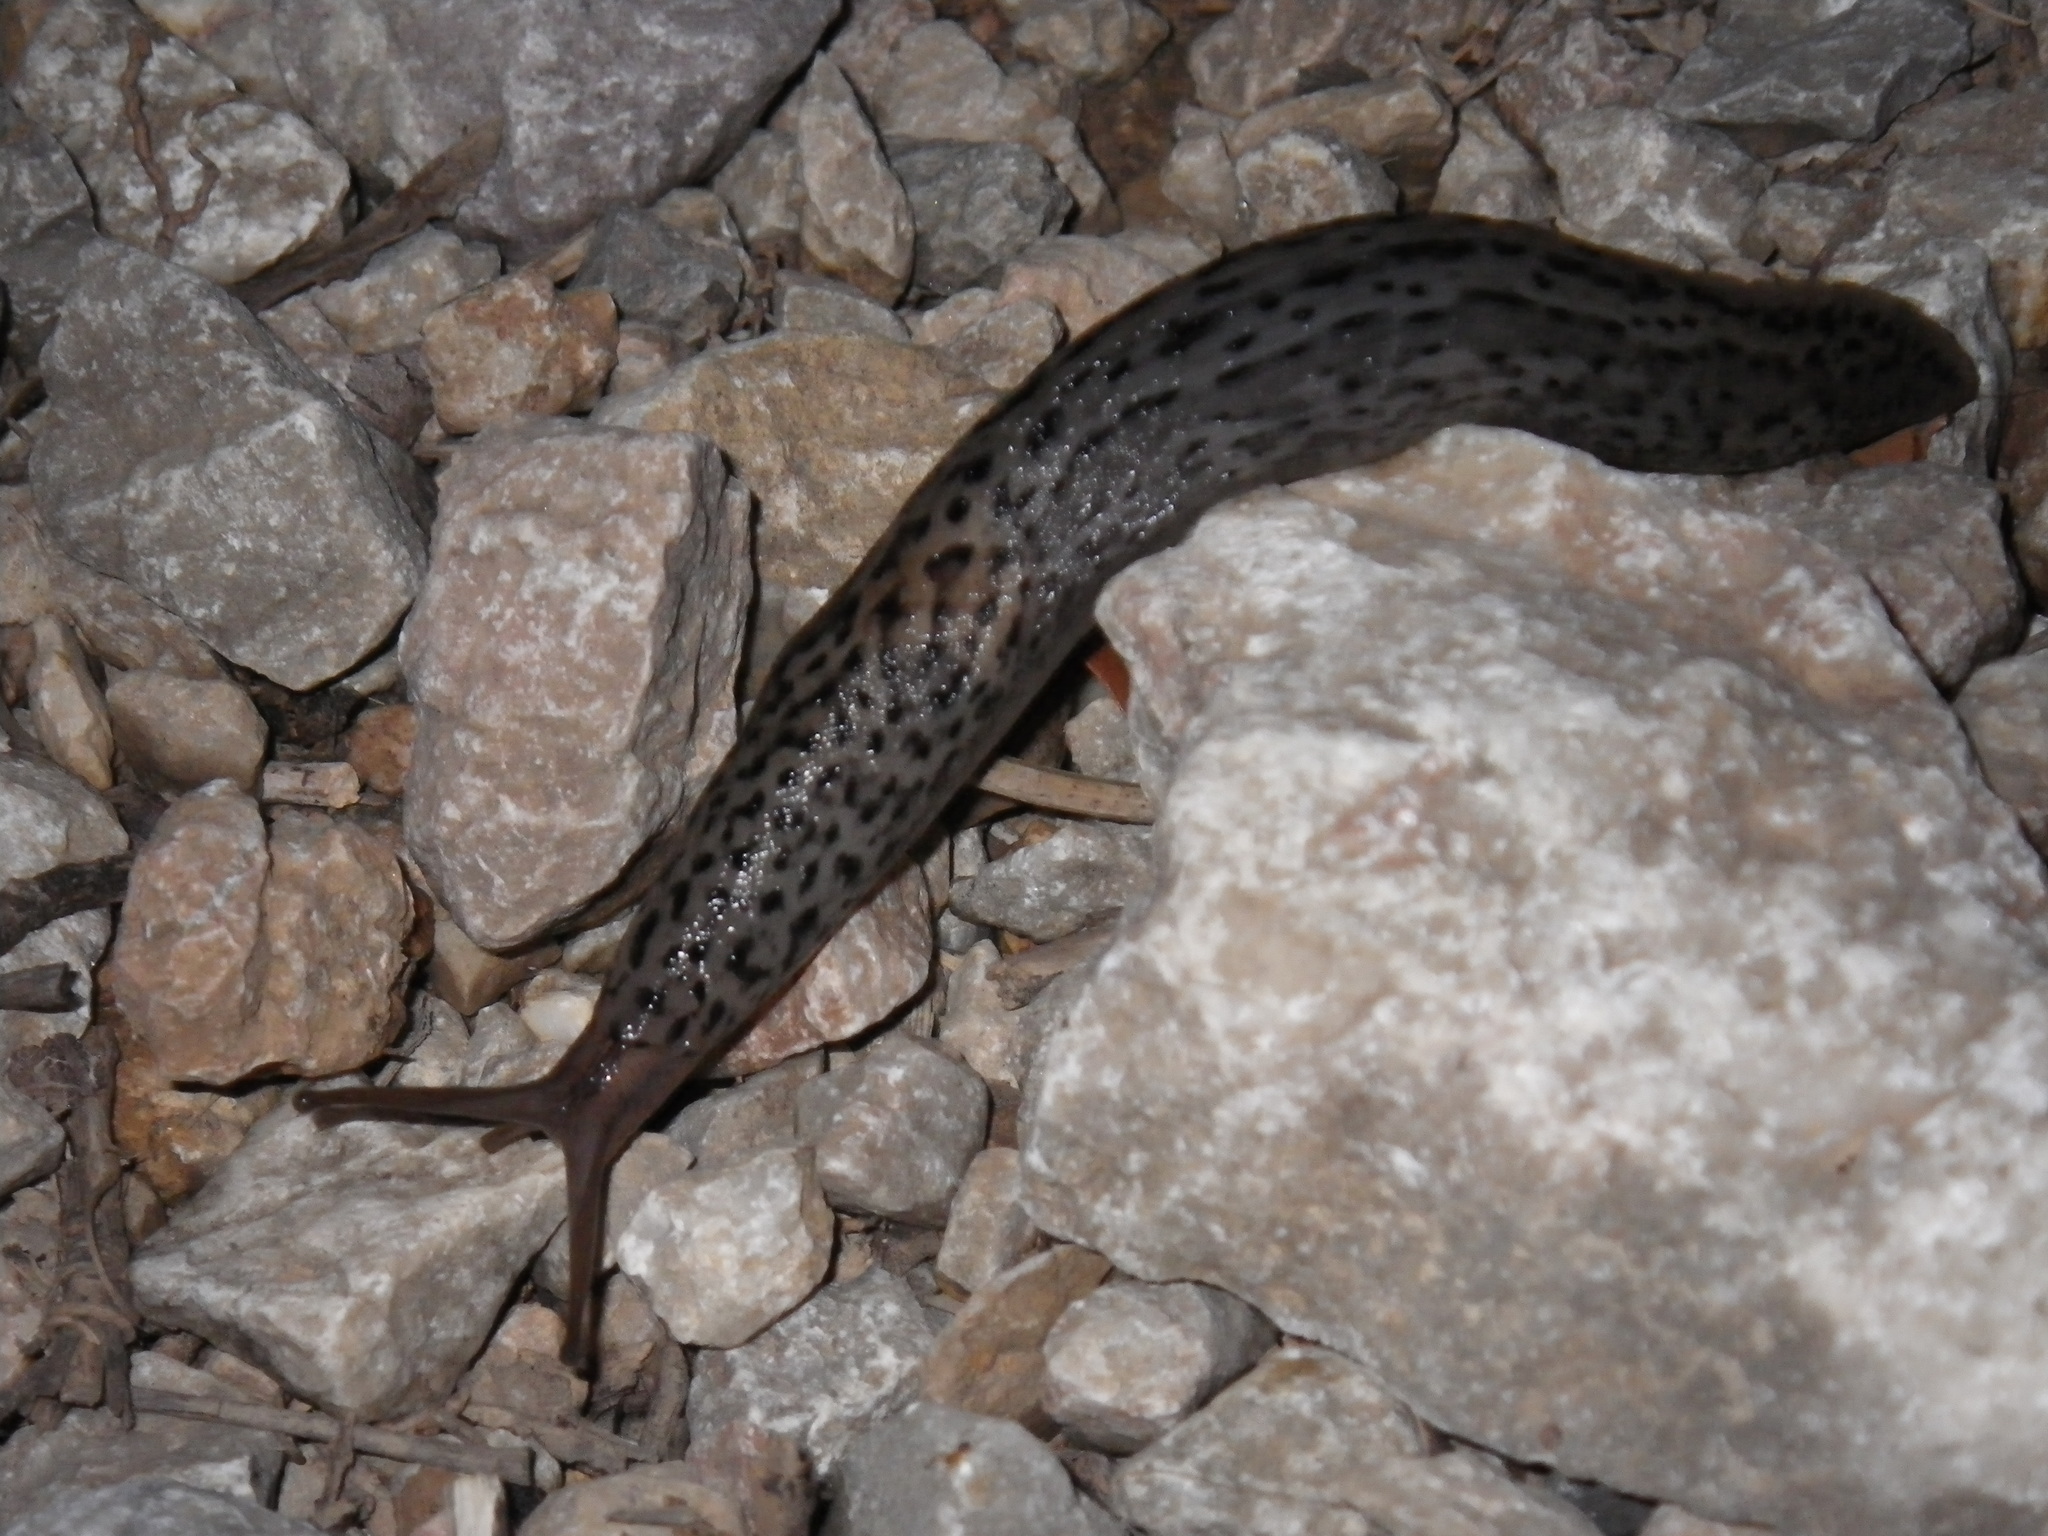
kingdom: Animalia
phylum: Mollusca
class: Gastropoda
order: Stylommatophora
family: Limacidae
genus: Limax
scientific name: Limax maximus
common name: Great grey slug
